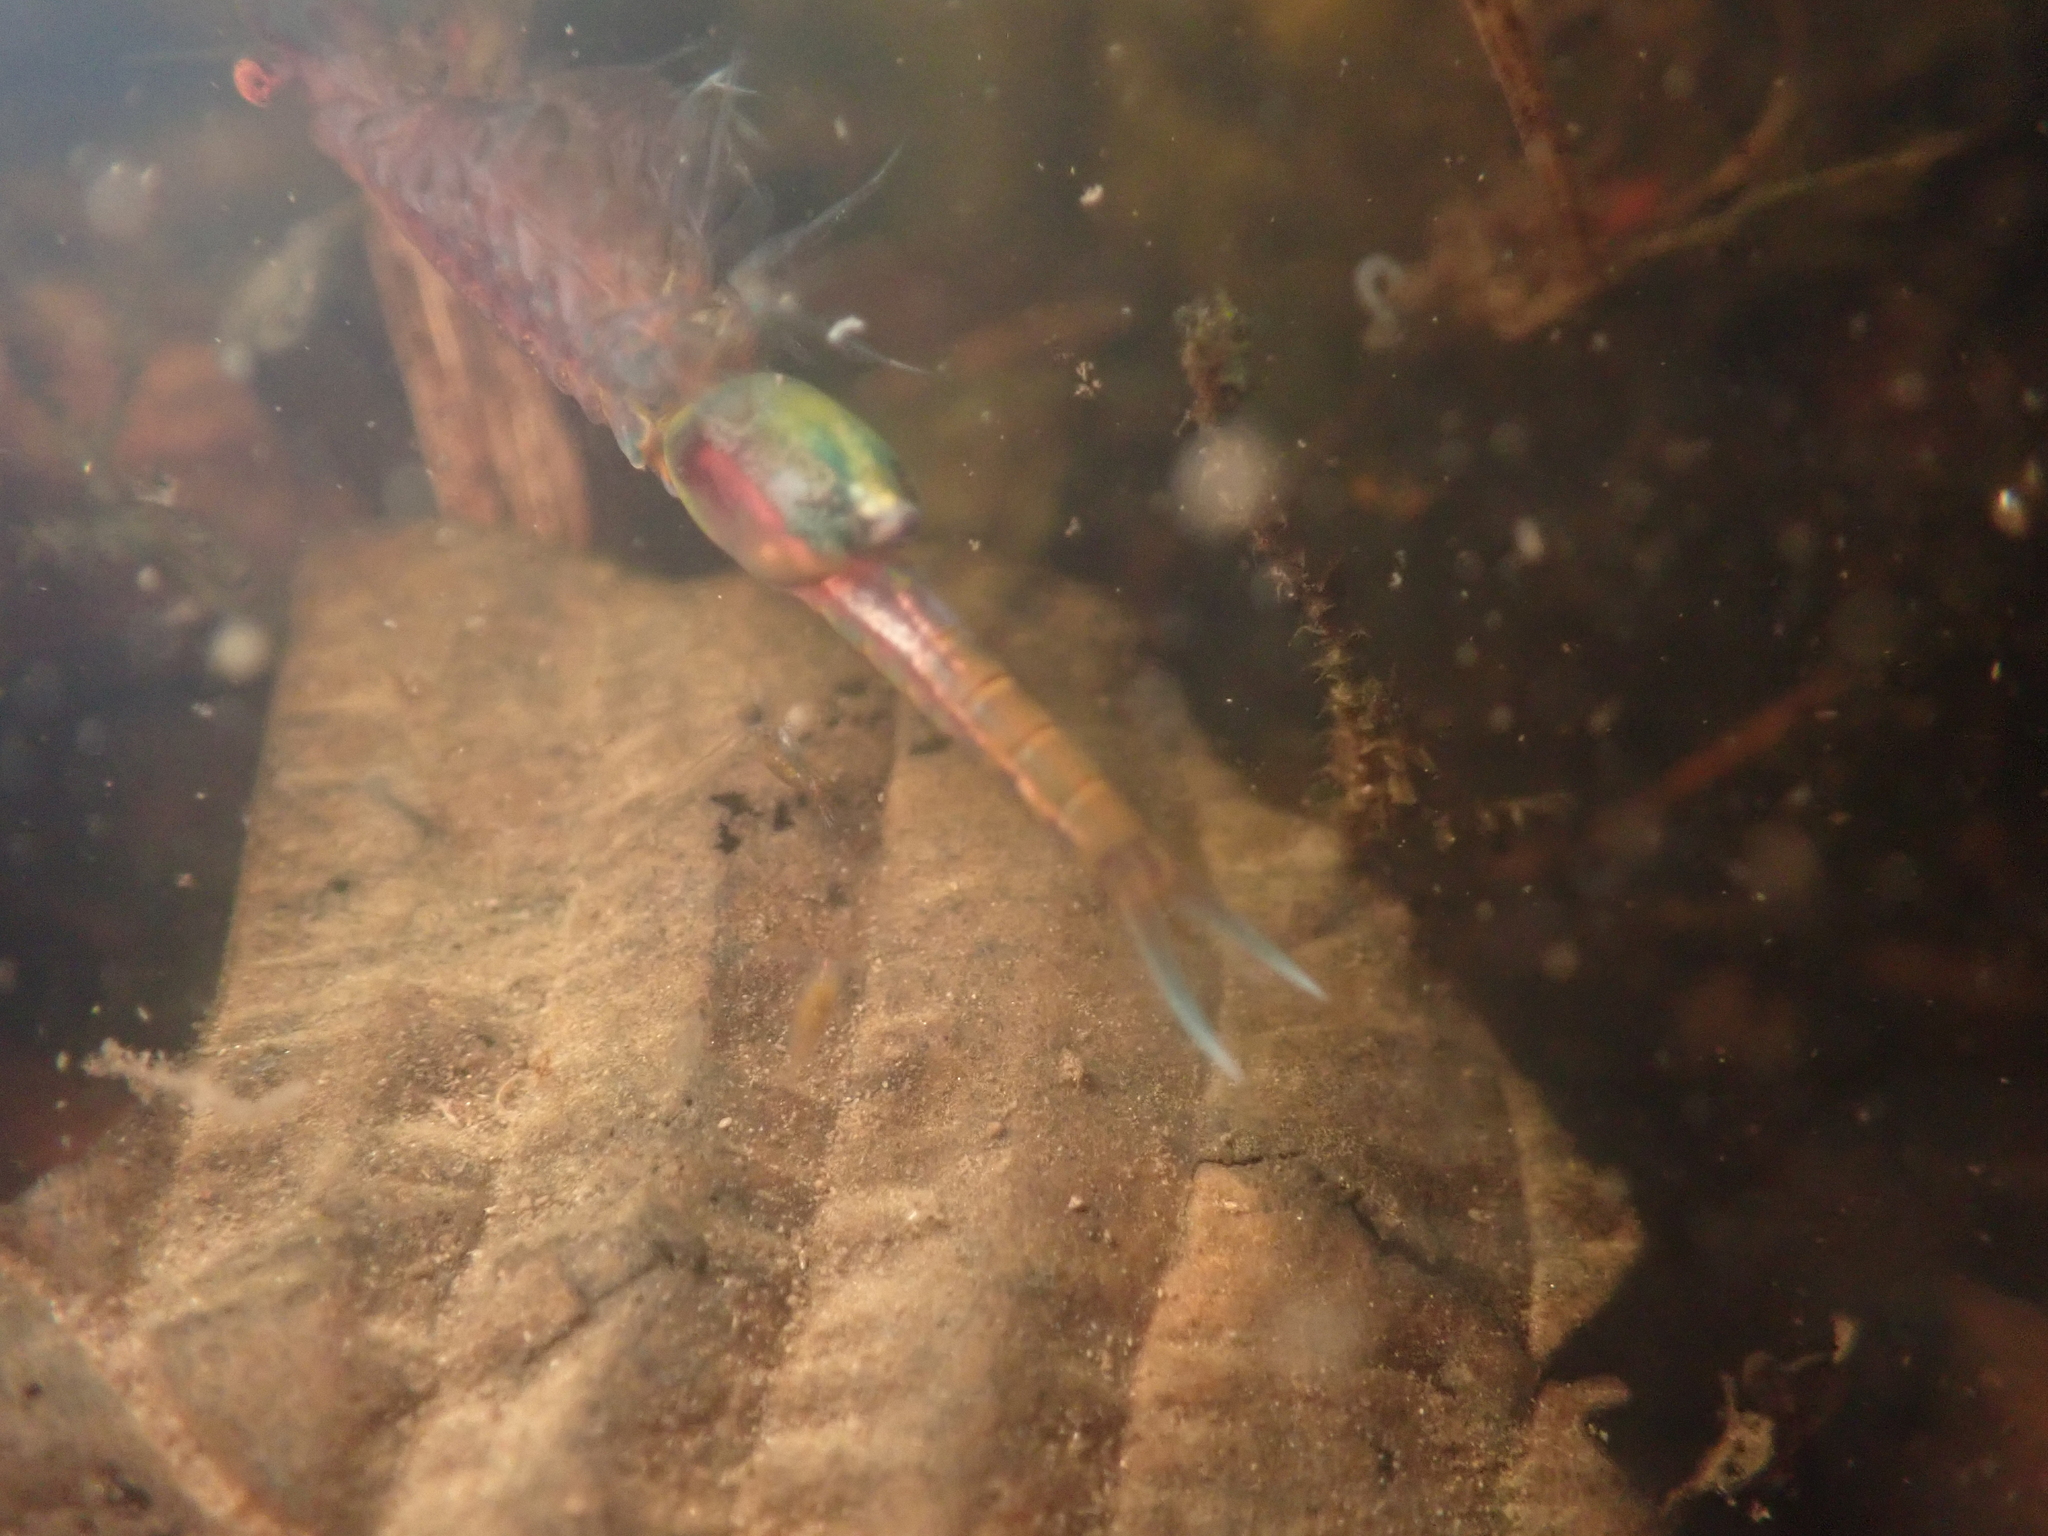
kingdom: Animalia
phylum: Arthropoda
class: Branchiopoda
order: Anostraca
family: Chirocephalidae
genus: Eubranchipus
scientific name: Eubranchipus grubii
